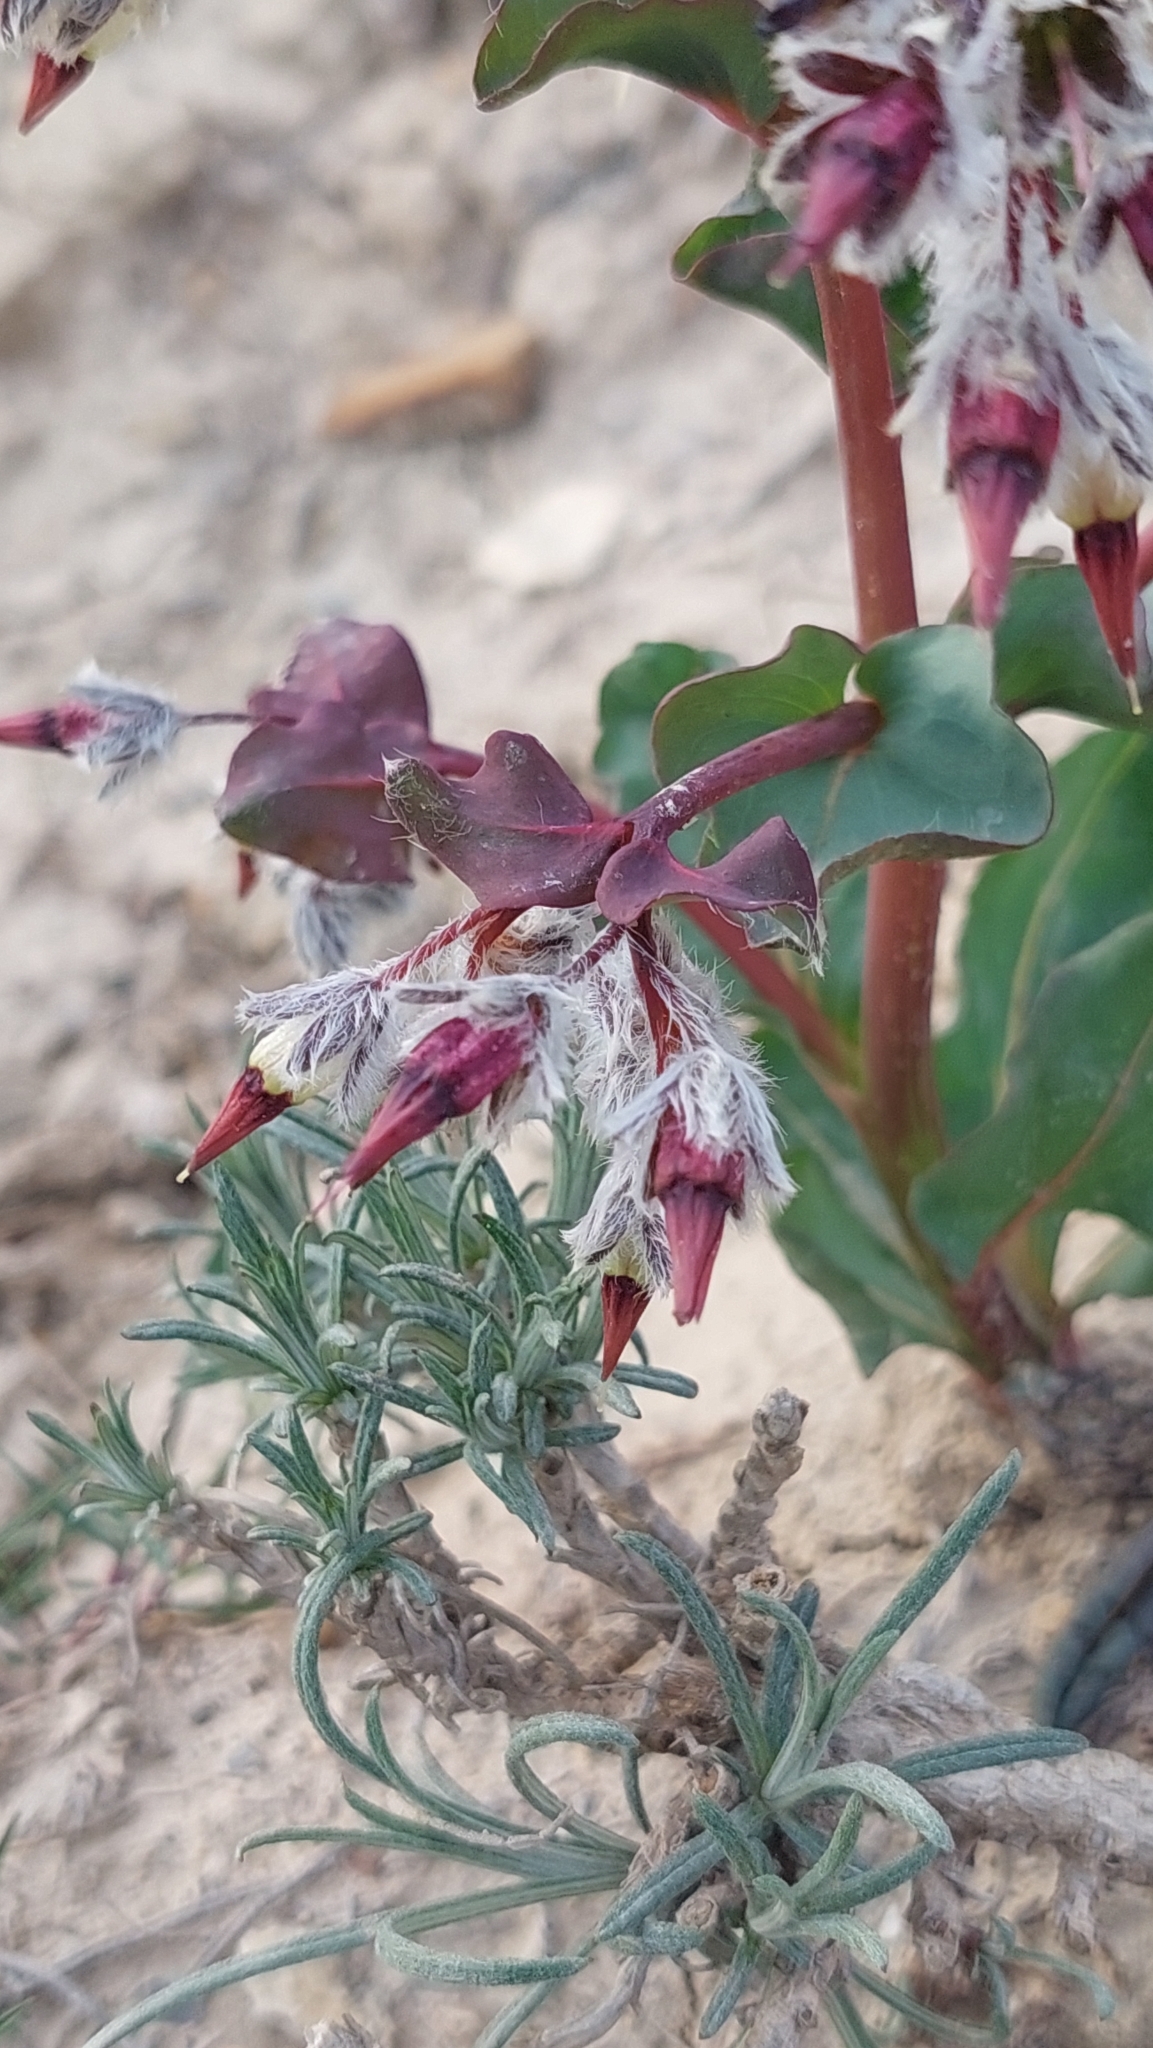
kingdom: Plantae
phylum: Tracheophyta
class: Magnoliopsida
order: Boraginales
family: Boraginaceae
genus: Rindera
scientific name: Rindera tetraspis
